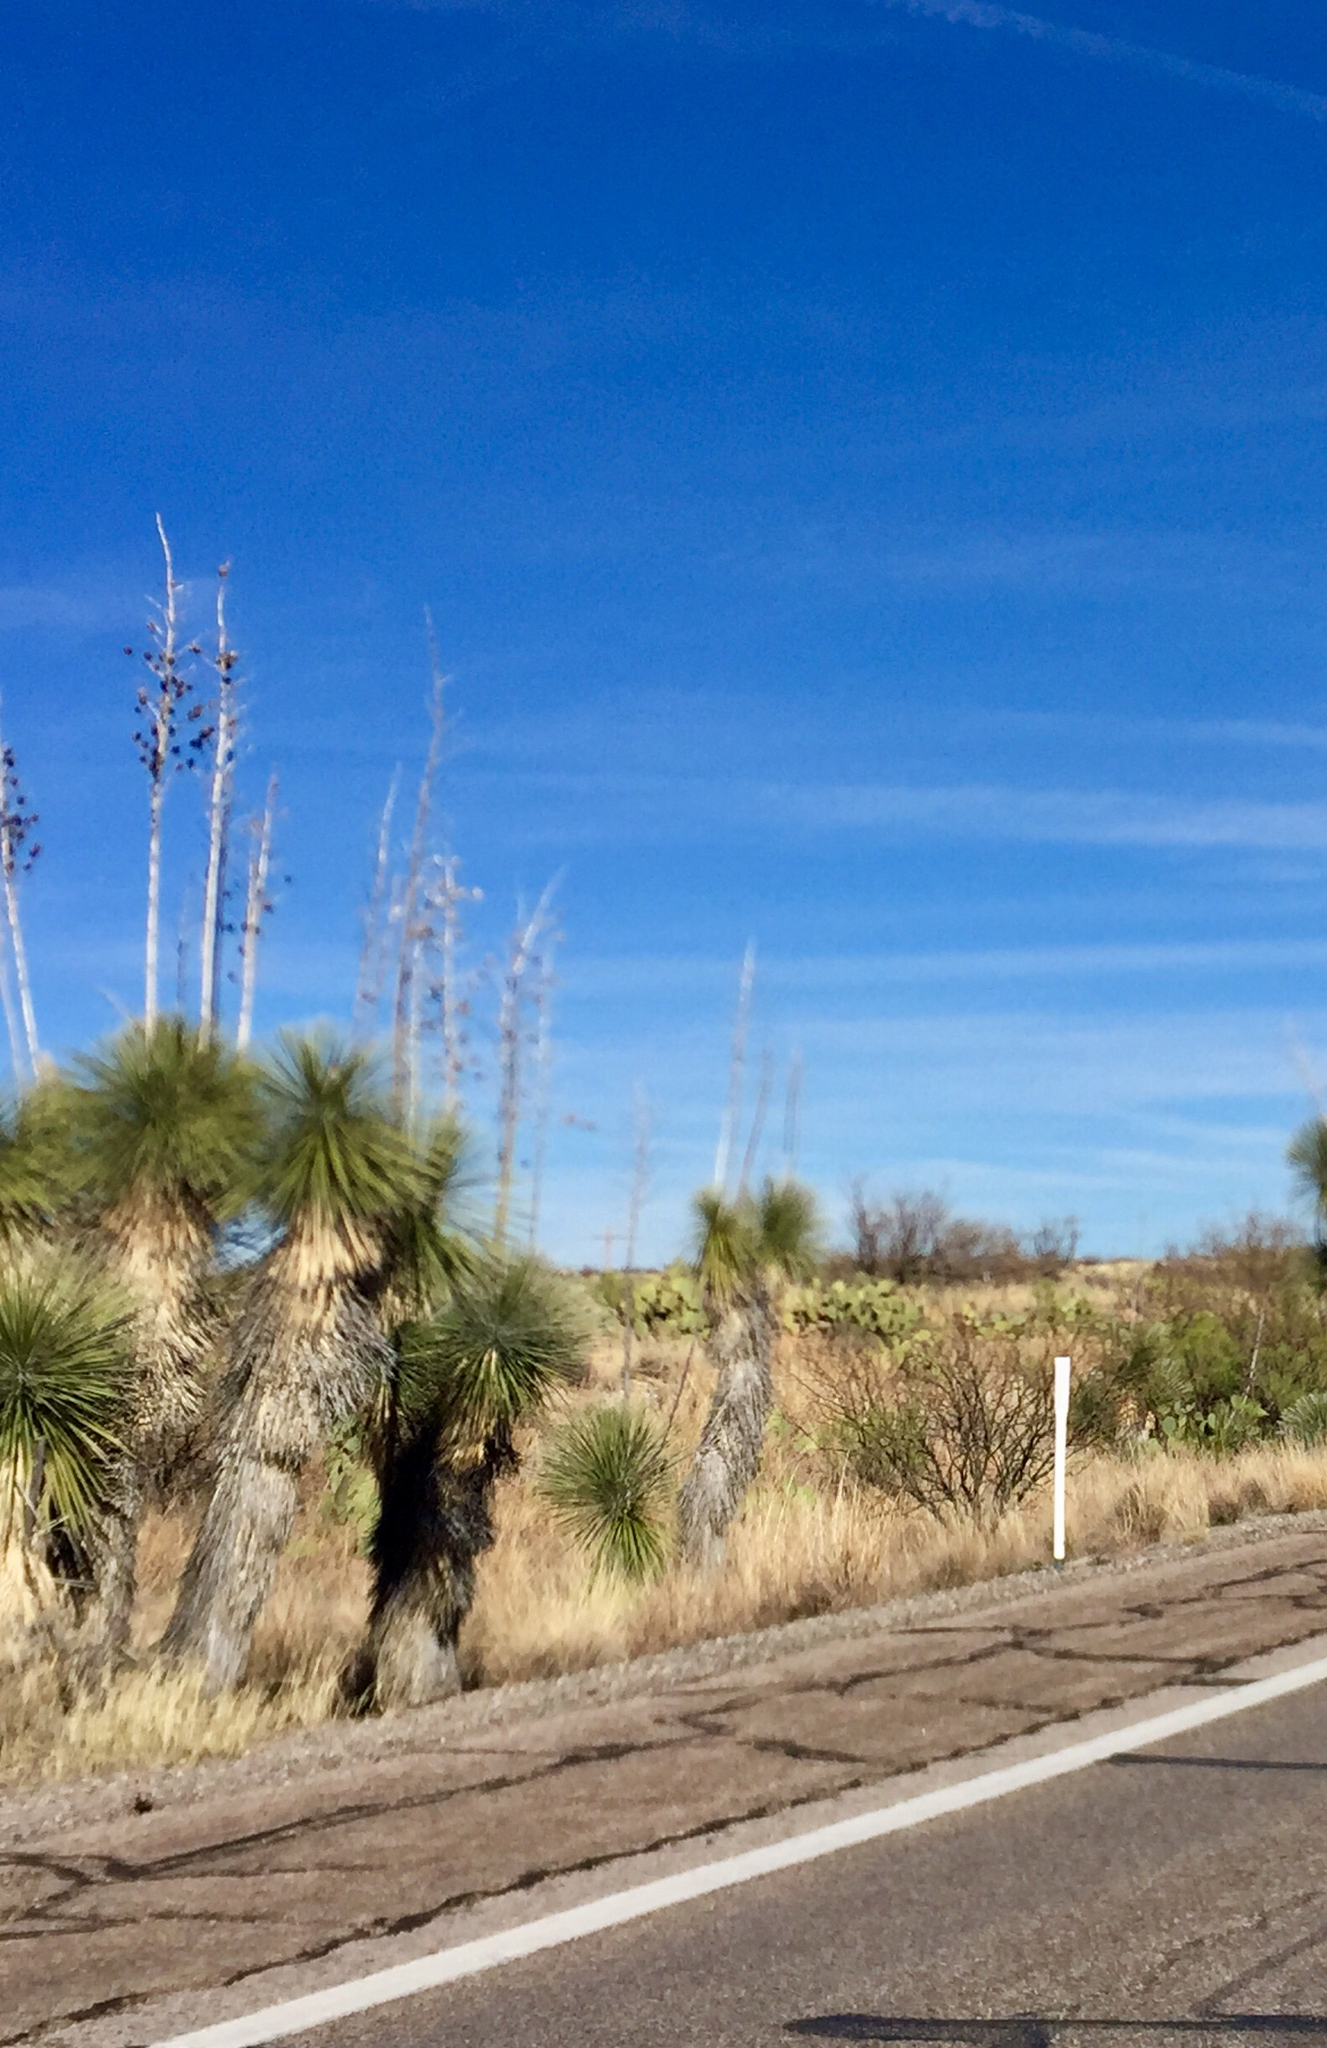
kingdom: Plantae
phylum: Tracheophyta
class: Liliopsida
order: Asparagales
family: Asparagaceae
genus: Yucca
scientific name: Yucca elata
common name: Palmella
